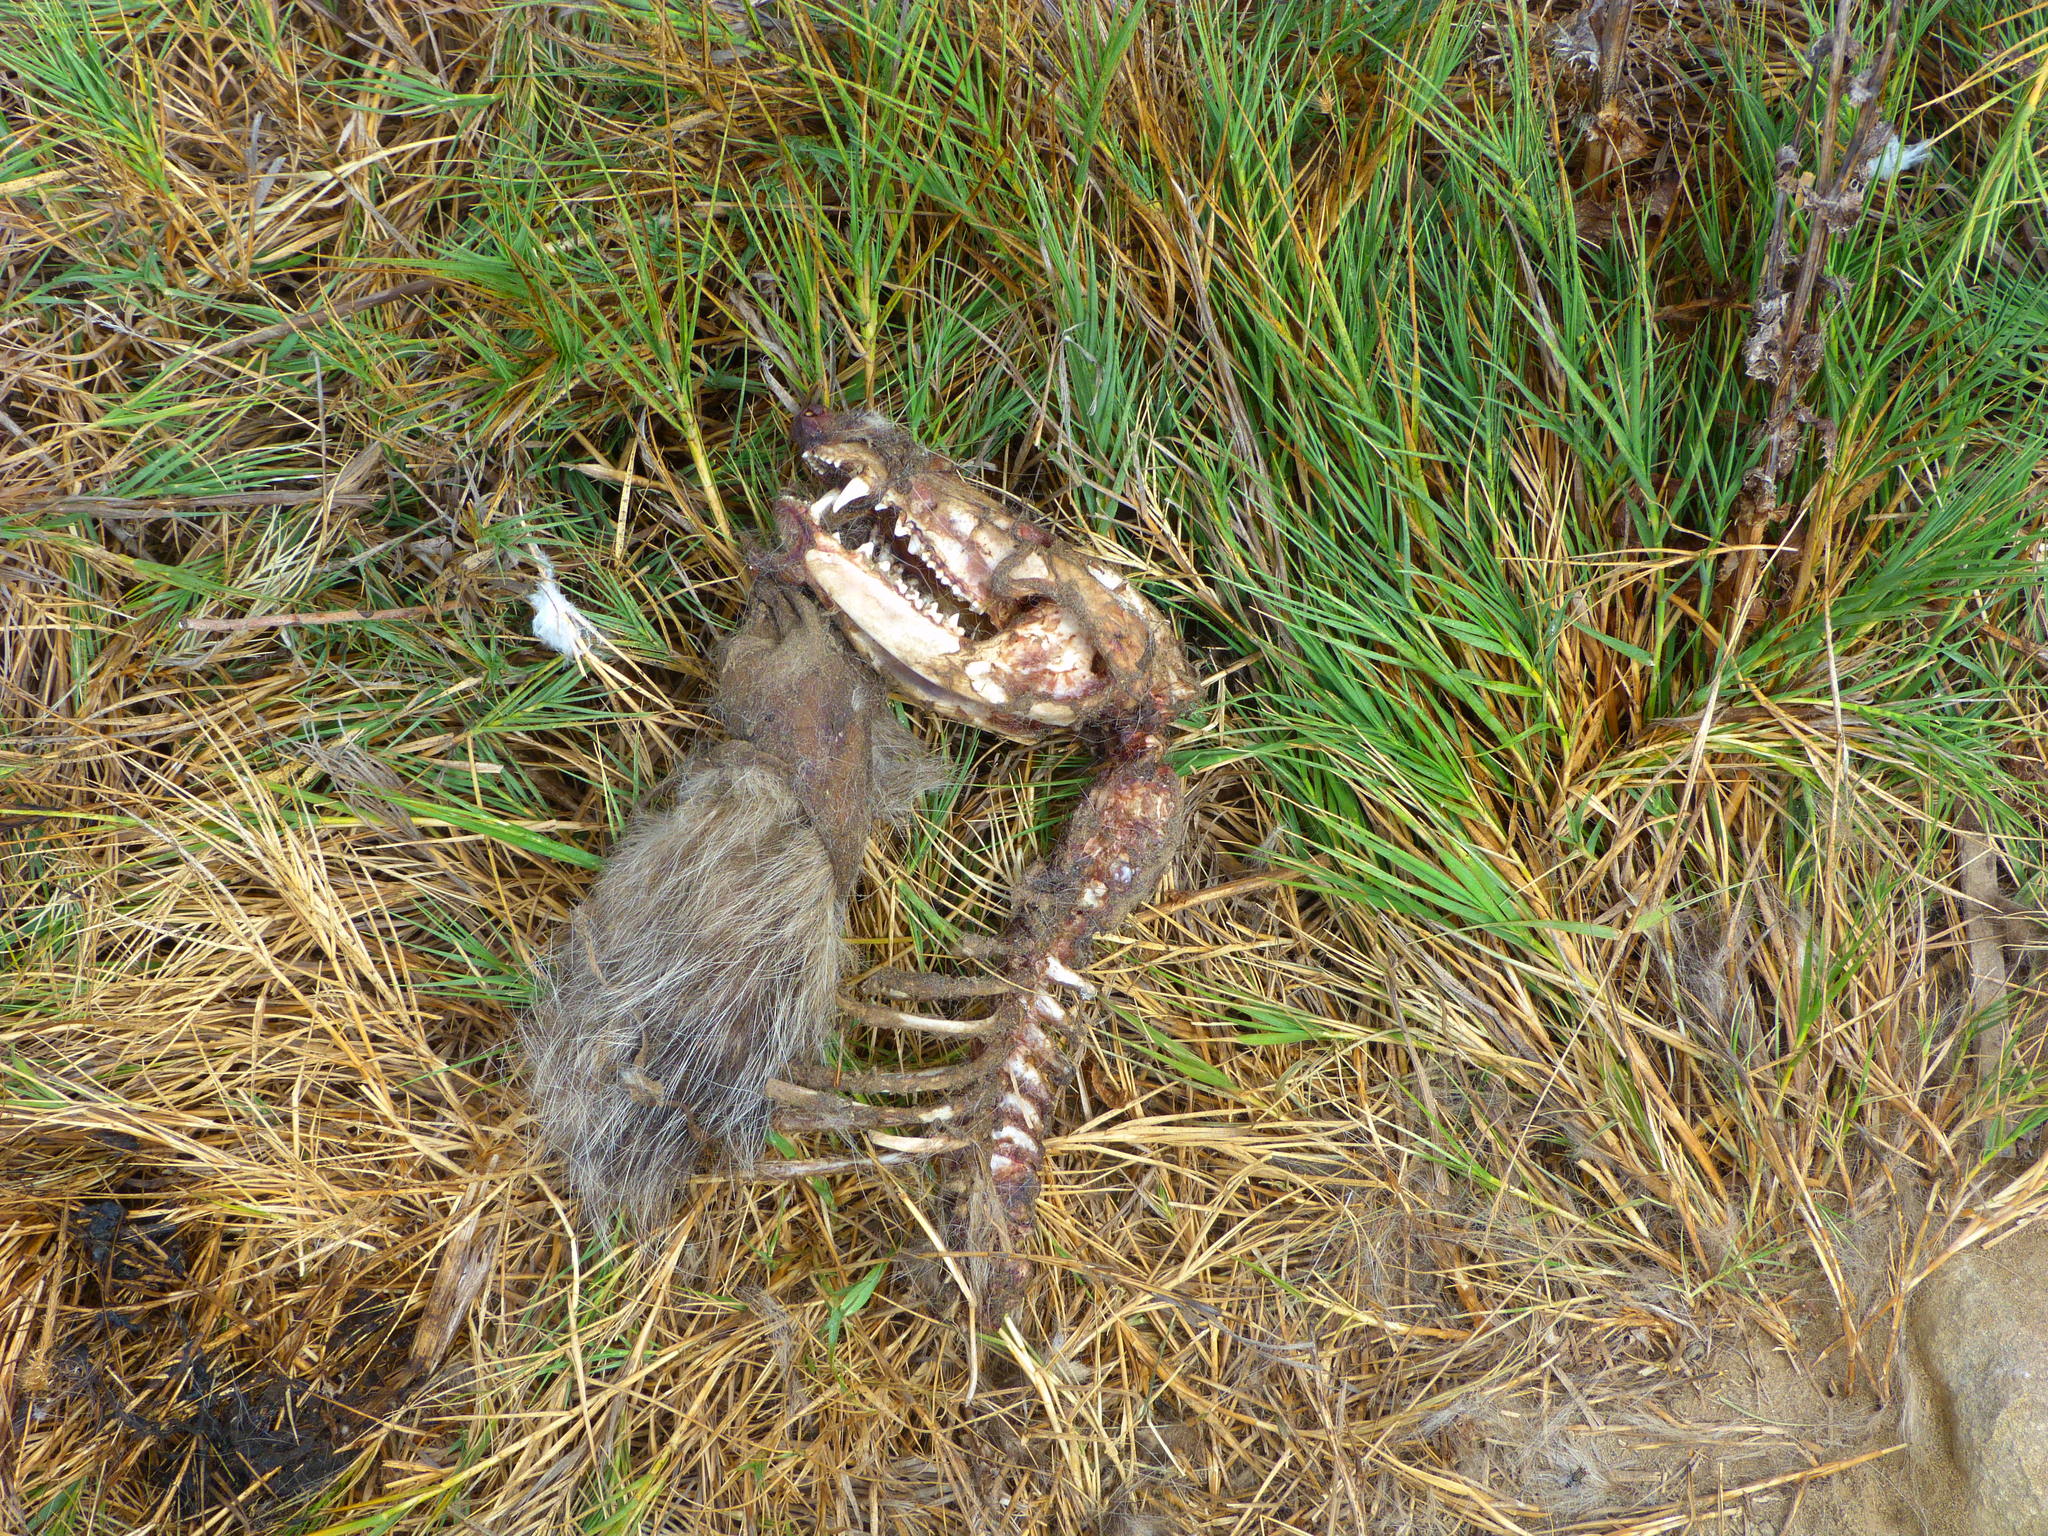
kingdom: Animalia
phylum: Chordata
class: Mammalia
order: Didelphimorphia
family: Didelphidae
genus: Didelphis
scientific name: Didelphis virginiana
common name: Virginia opossum
